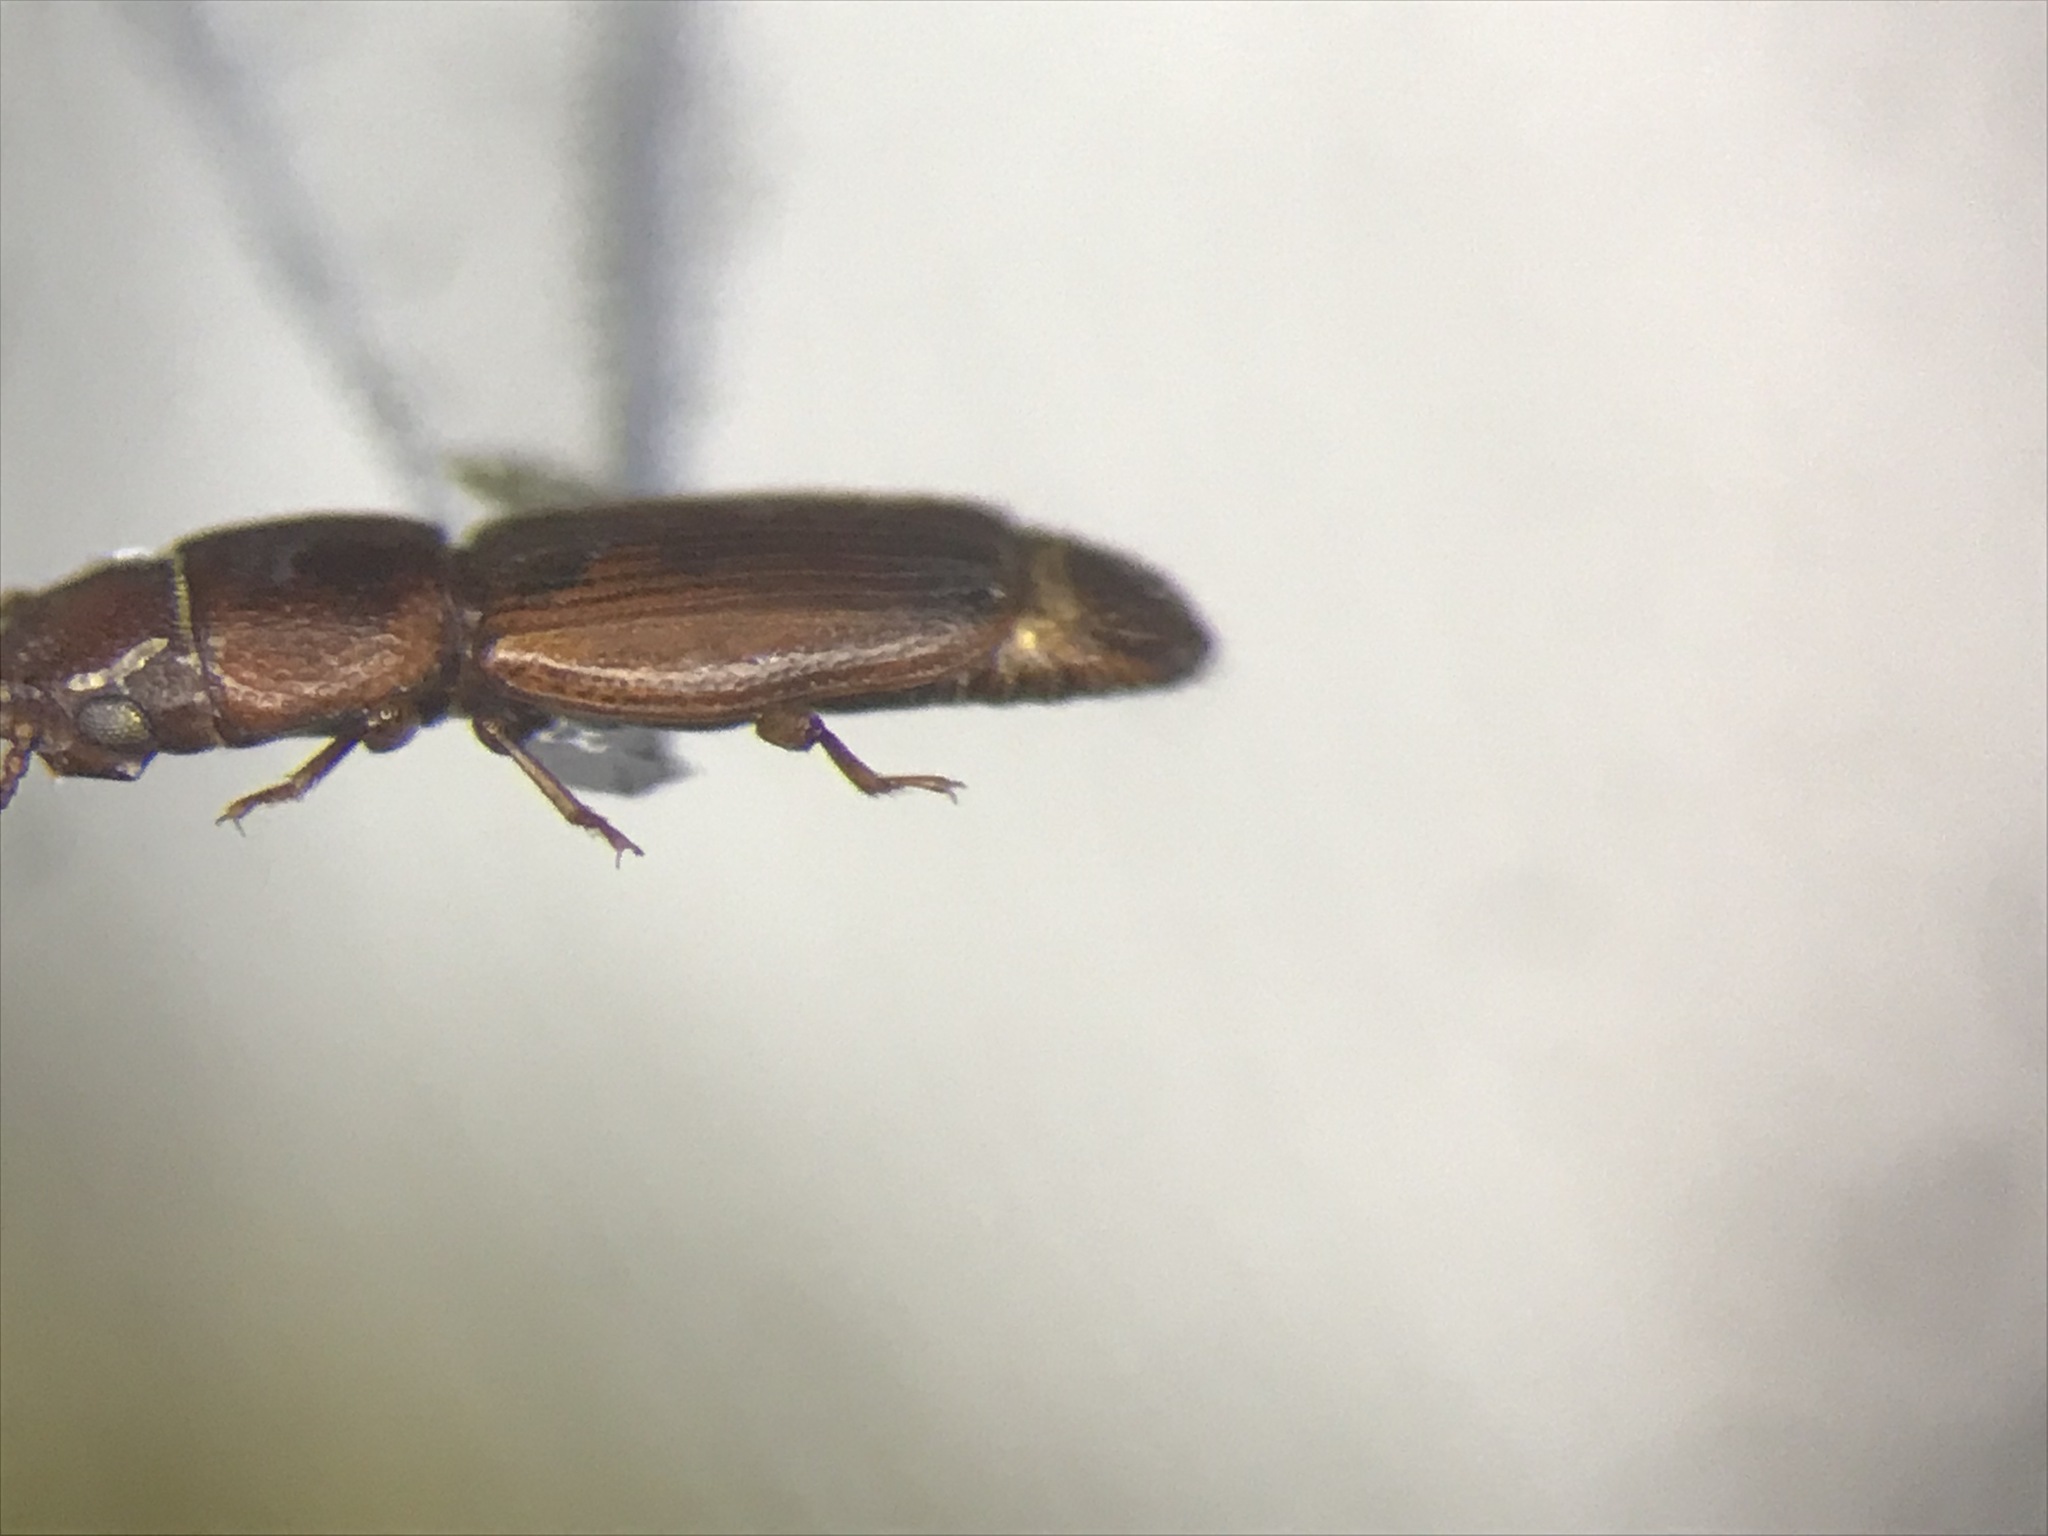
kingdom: Animalia
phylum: Arthropoda
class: Insecta
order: Coleoptera
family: Monotomidae
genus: Bactridium
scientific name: Bactridium striolatum
